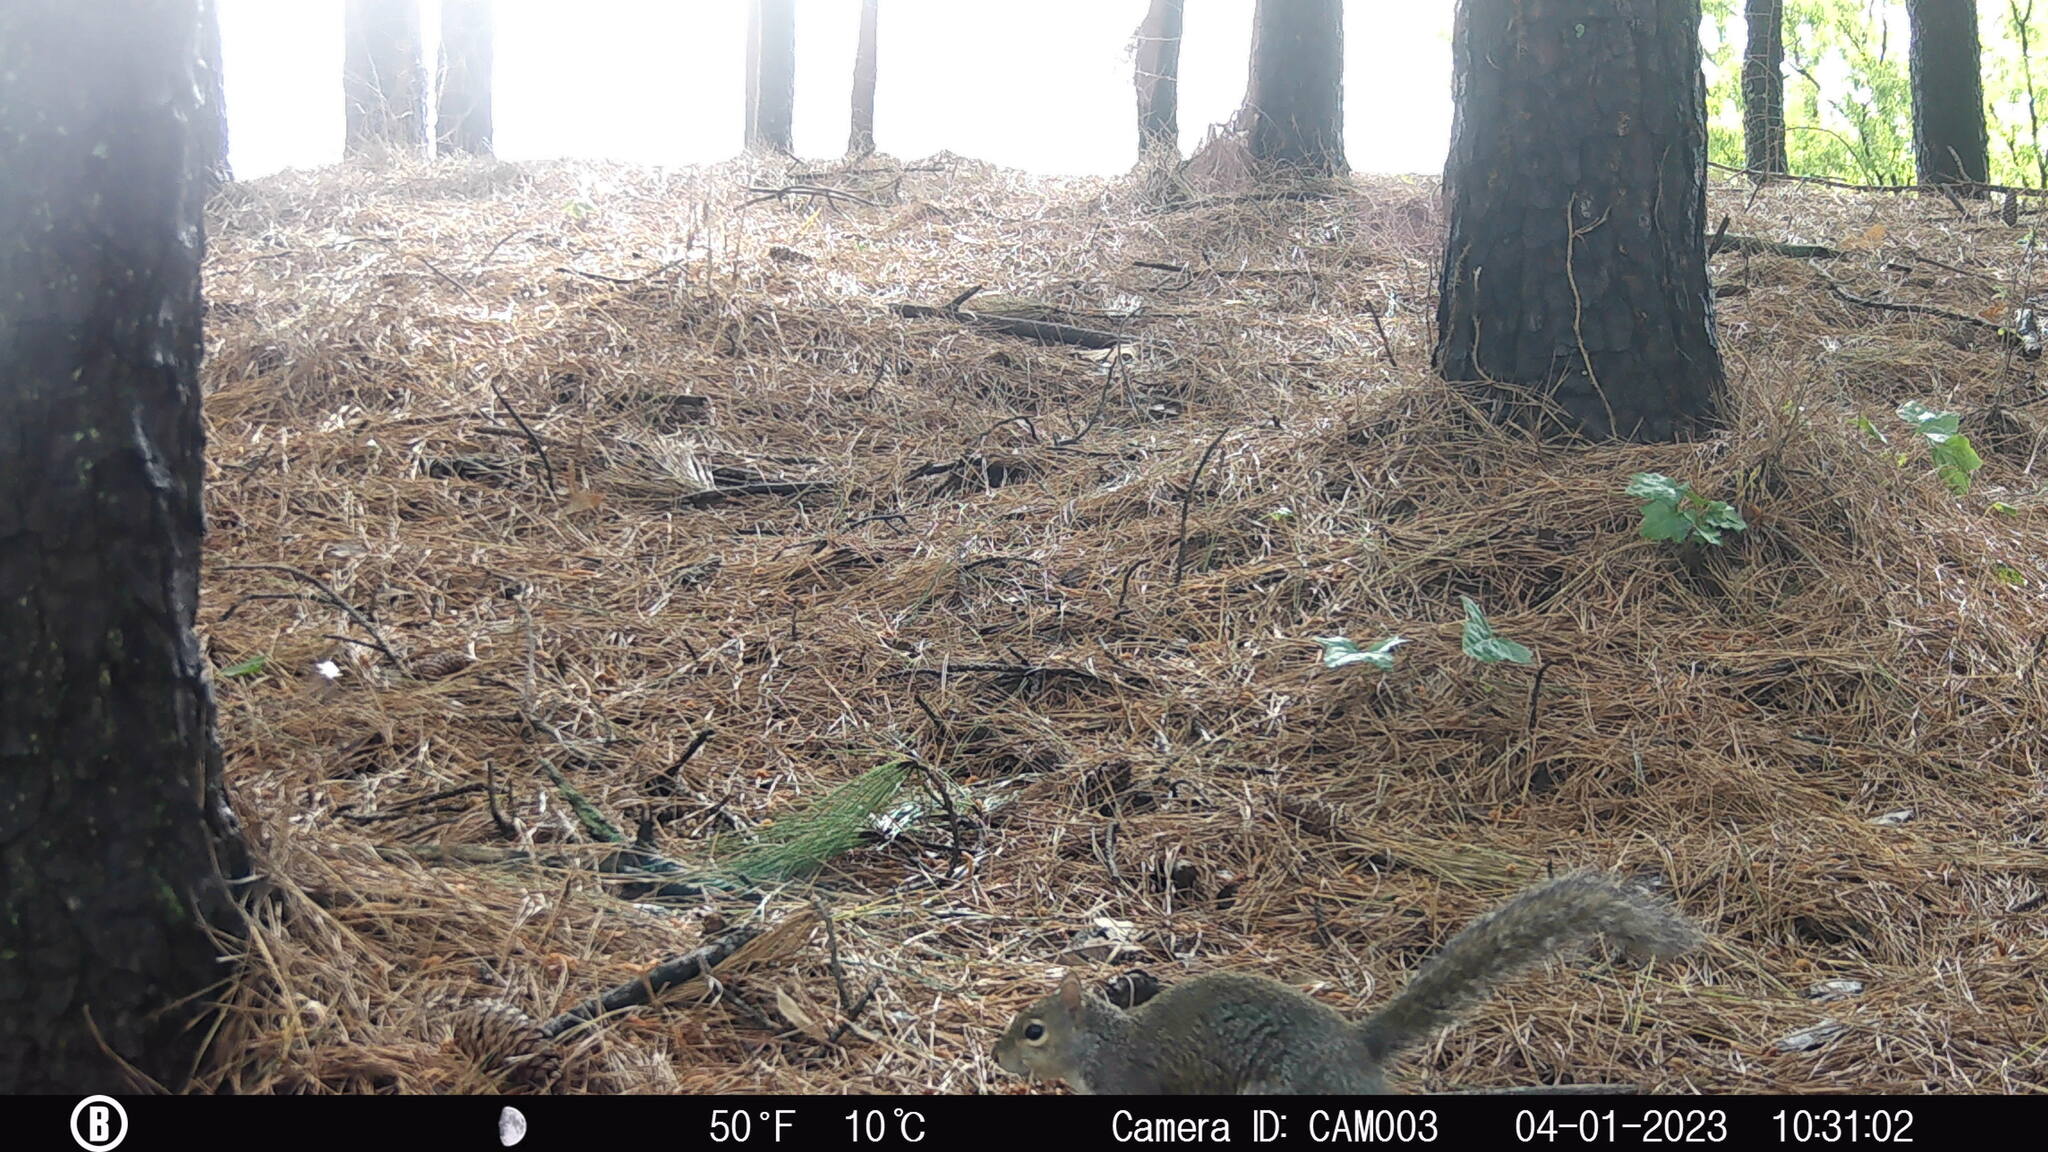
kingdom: Animalia
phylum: Chordata
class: Mammalia
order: Rodentia
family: Sciuridae
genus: Sciurus
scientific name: Sciurus carolinensis
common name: Eastern gray squirrel
